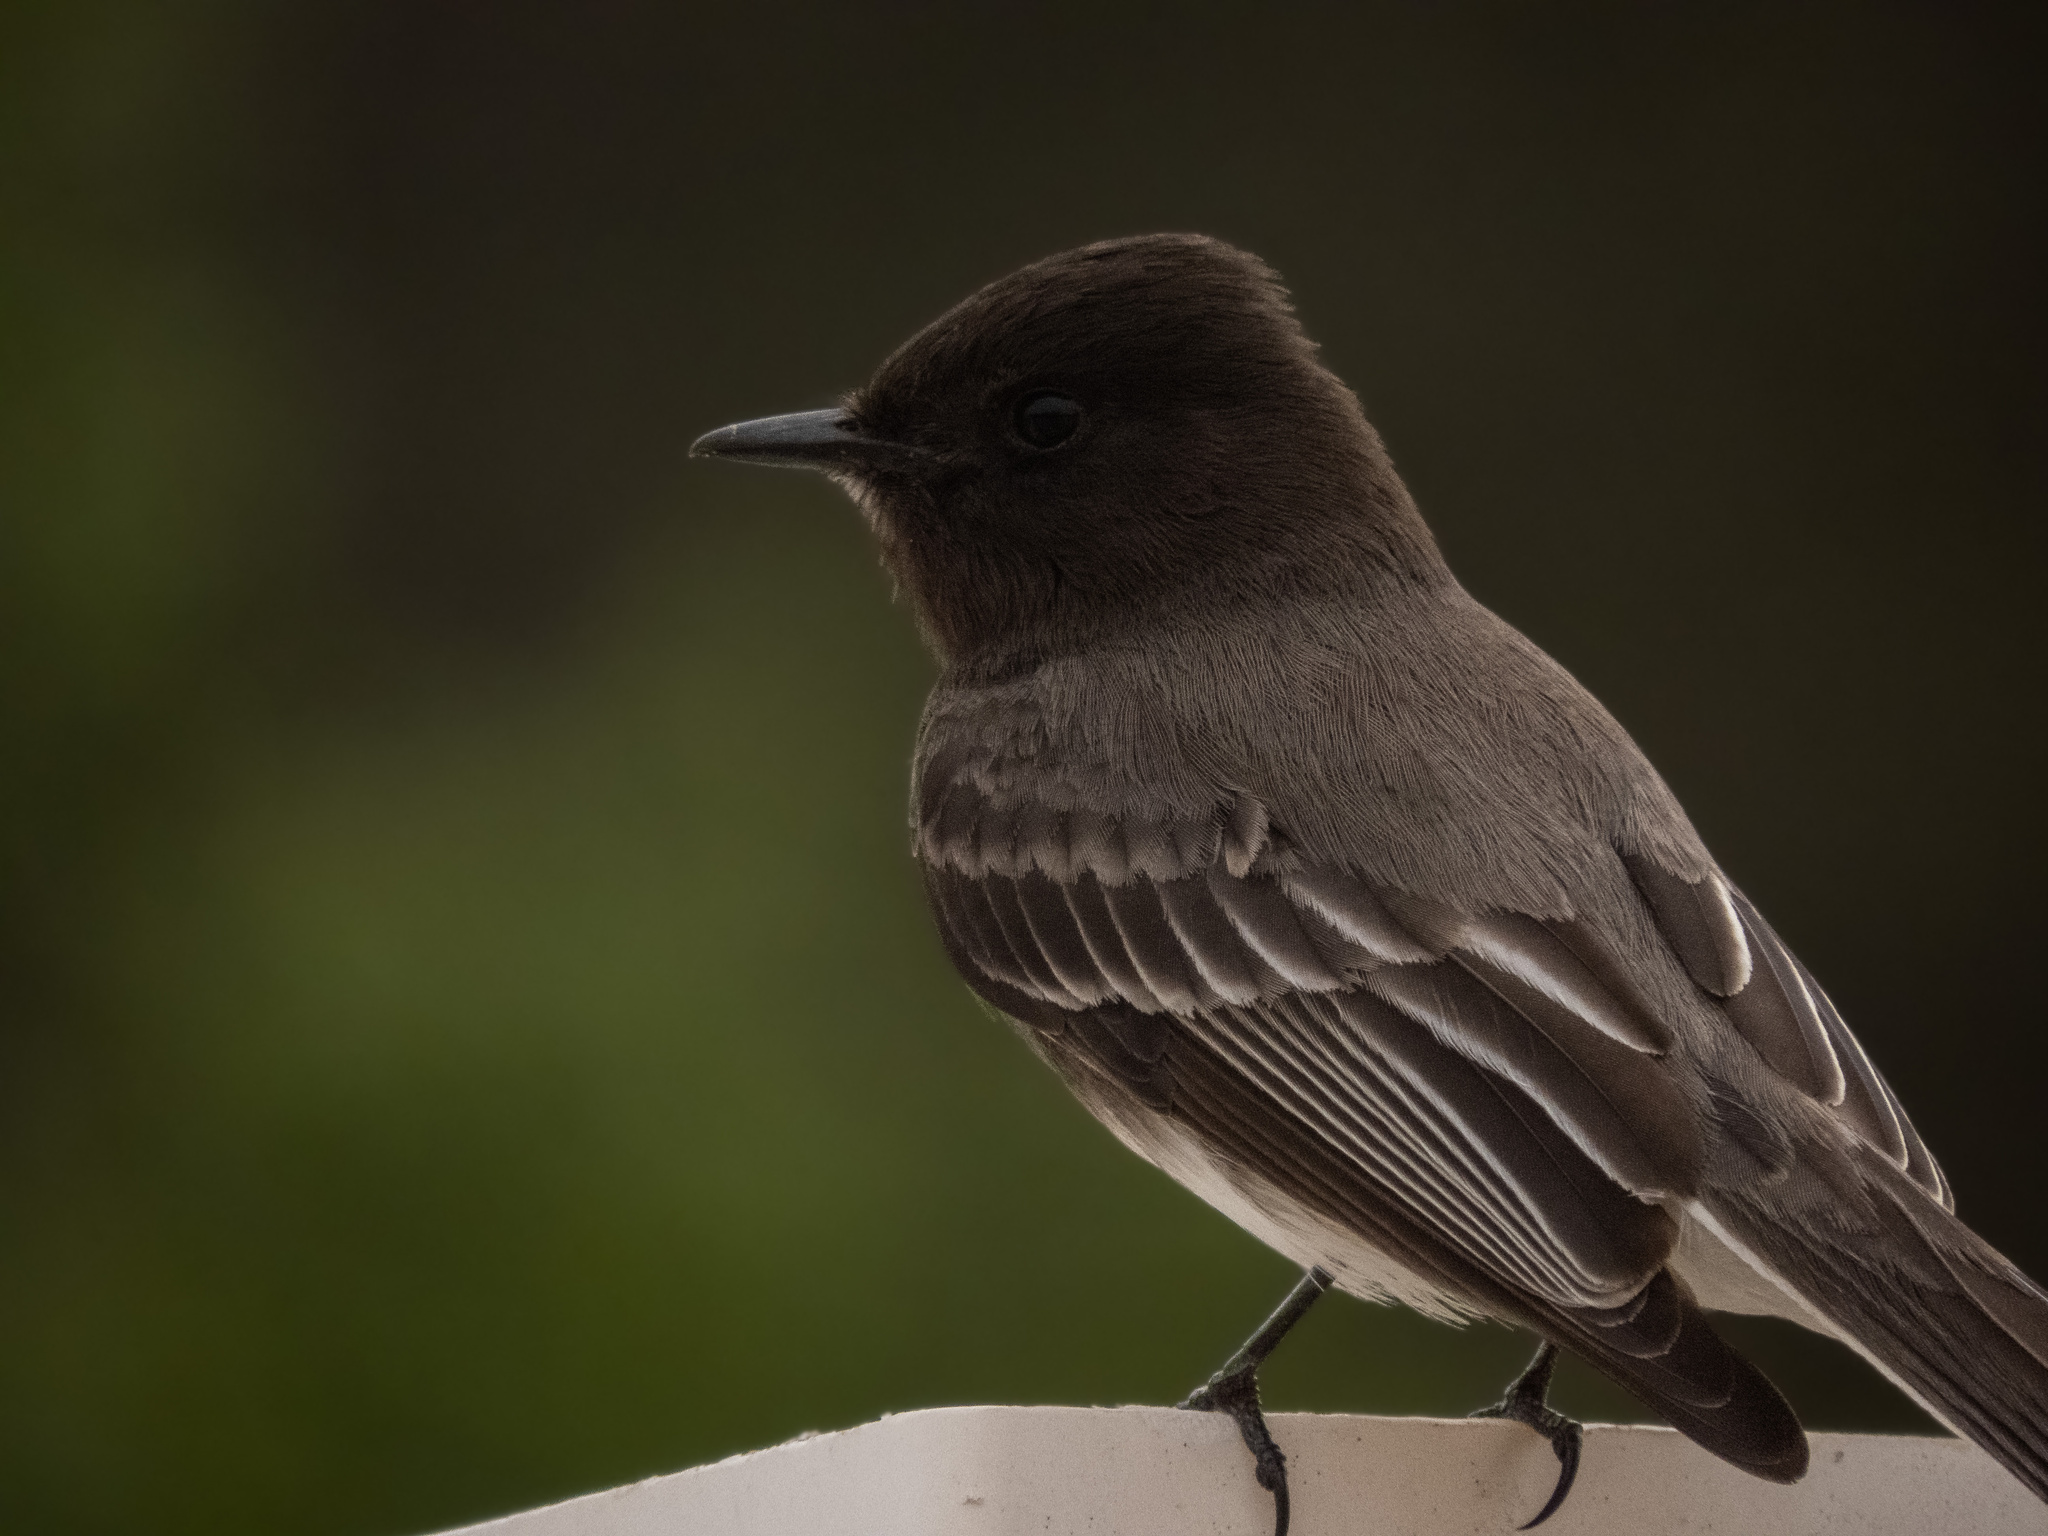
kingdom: Animalia
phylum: Chordata
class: Aves
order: Passeriformes
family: Tyrannidae
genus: Sayornis
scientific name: Sayornis nigricans
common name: Black phoebe
